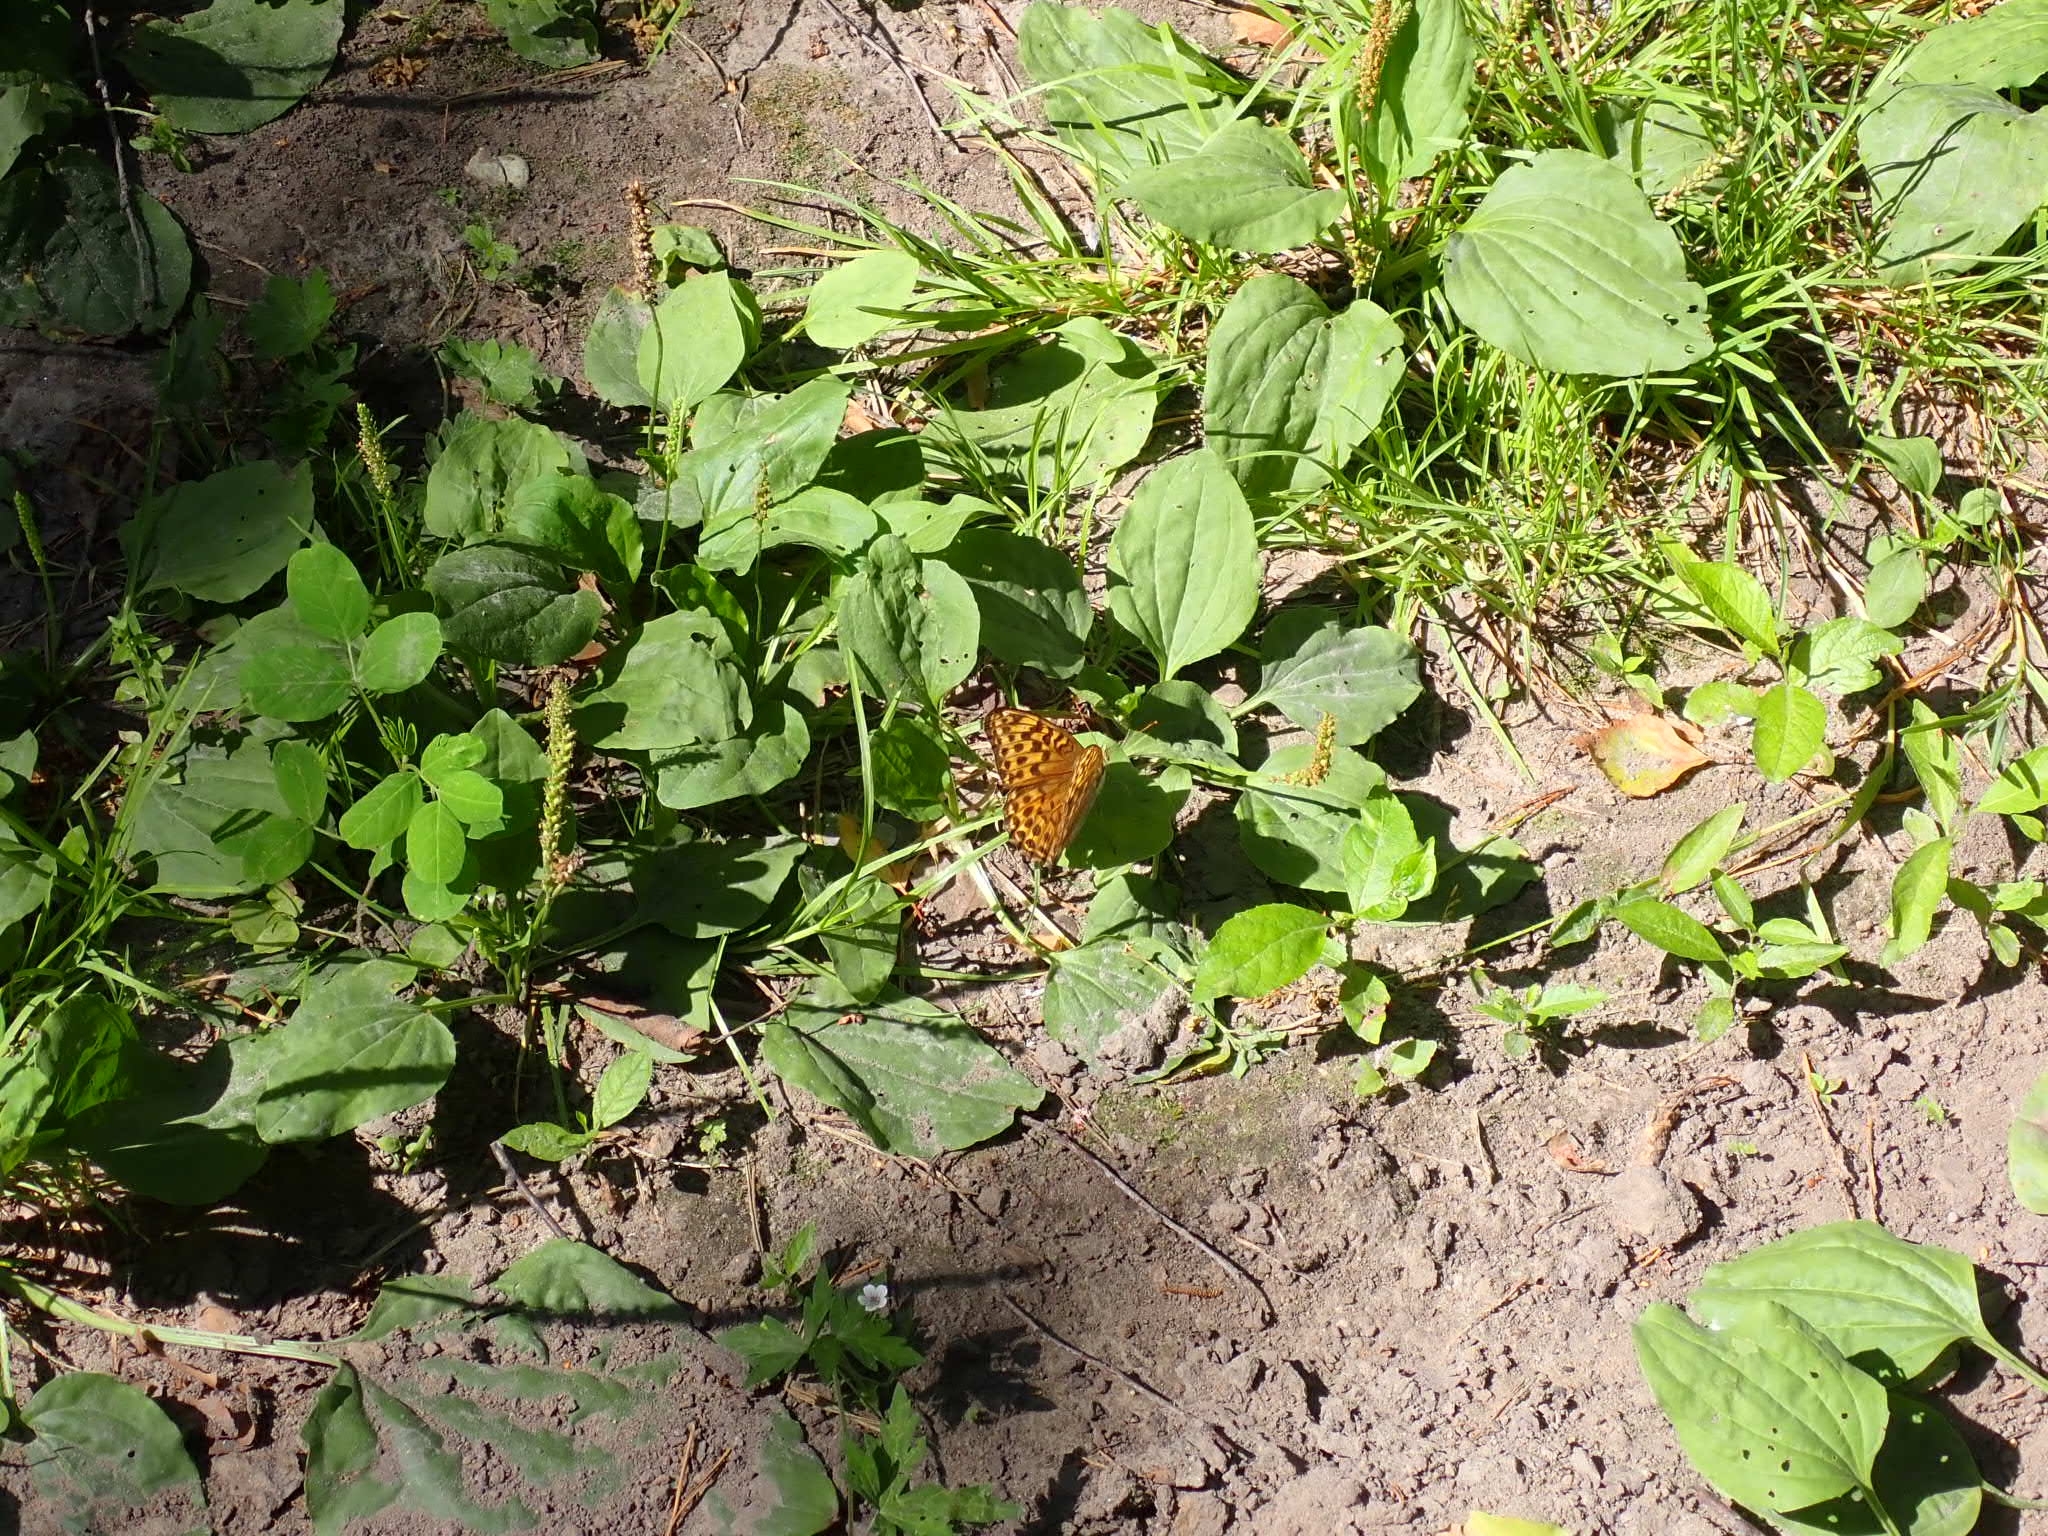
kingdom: Animalia
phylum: Arthropoda
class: Insecta
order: Lepidoptera
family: Nymphalidae
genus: Argynnis
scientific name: Argynnis paphia
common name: Silver-washed fritillary
